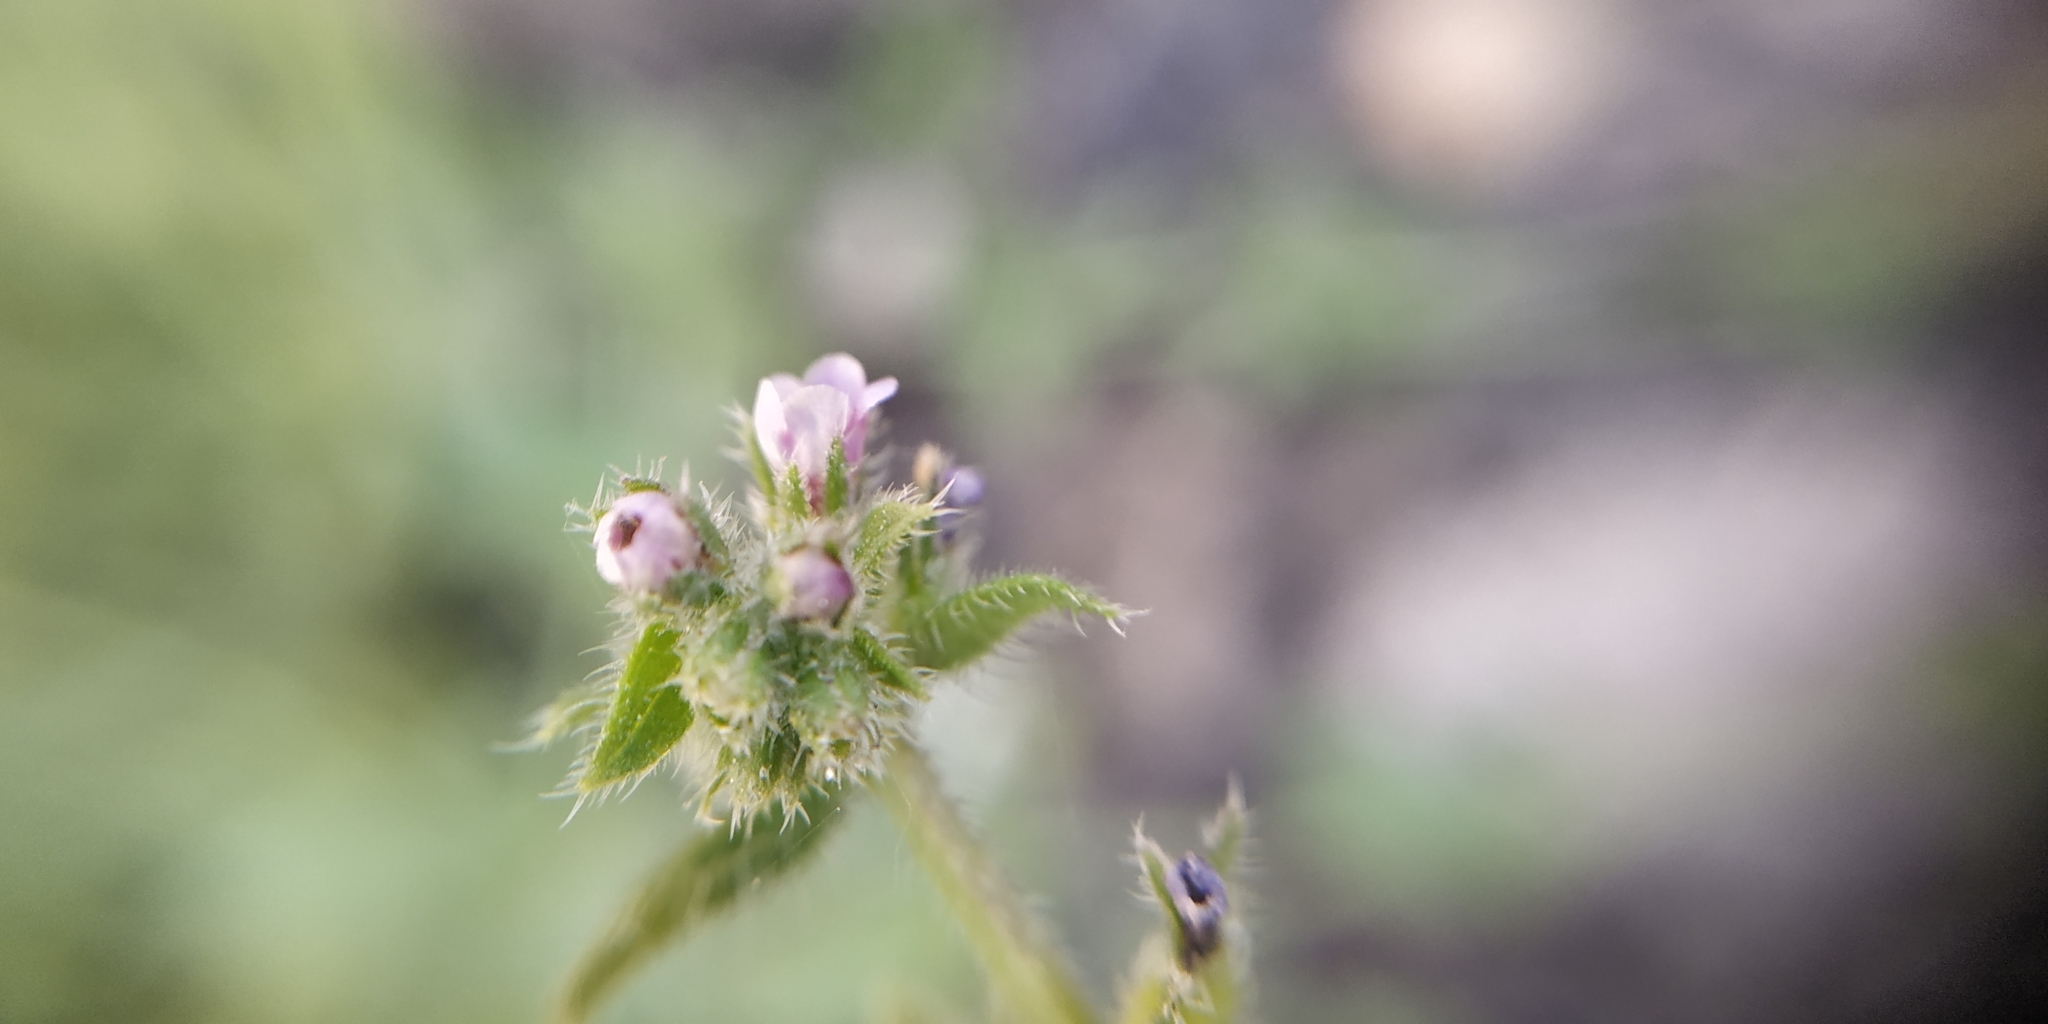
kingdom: Plantae
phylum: Tracheophyta
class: Magnoliopsida
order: Boraginales
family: Boraginaceae
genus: Asperugo
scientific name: Asperugo procumbens
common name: Madwort
